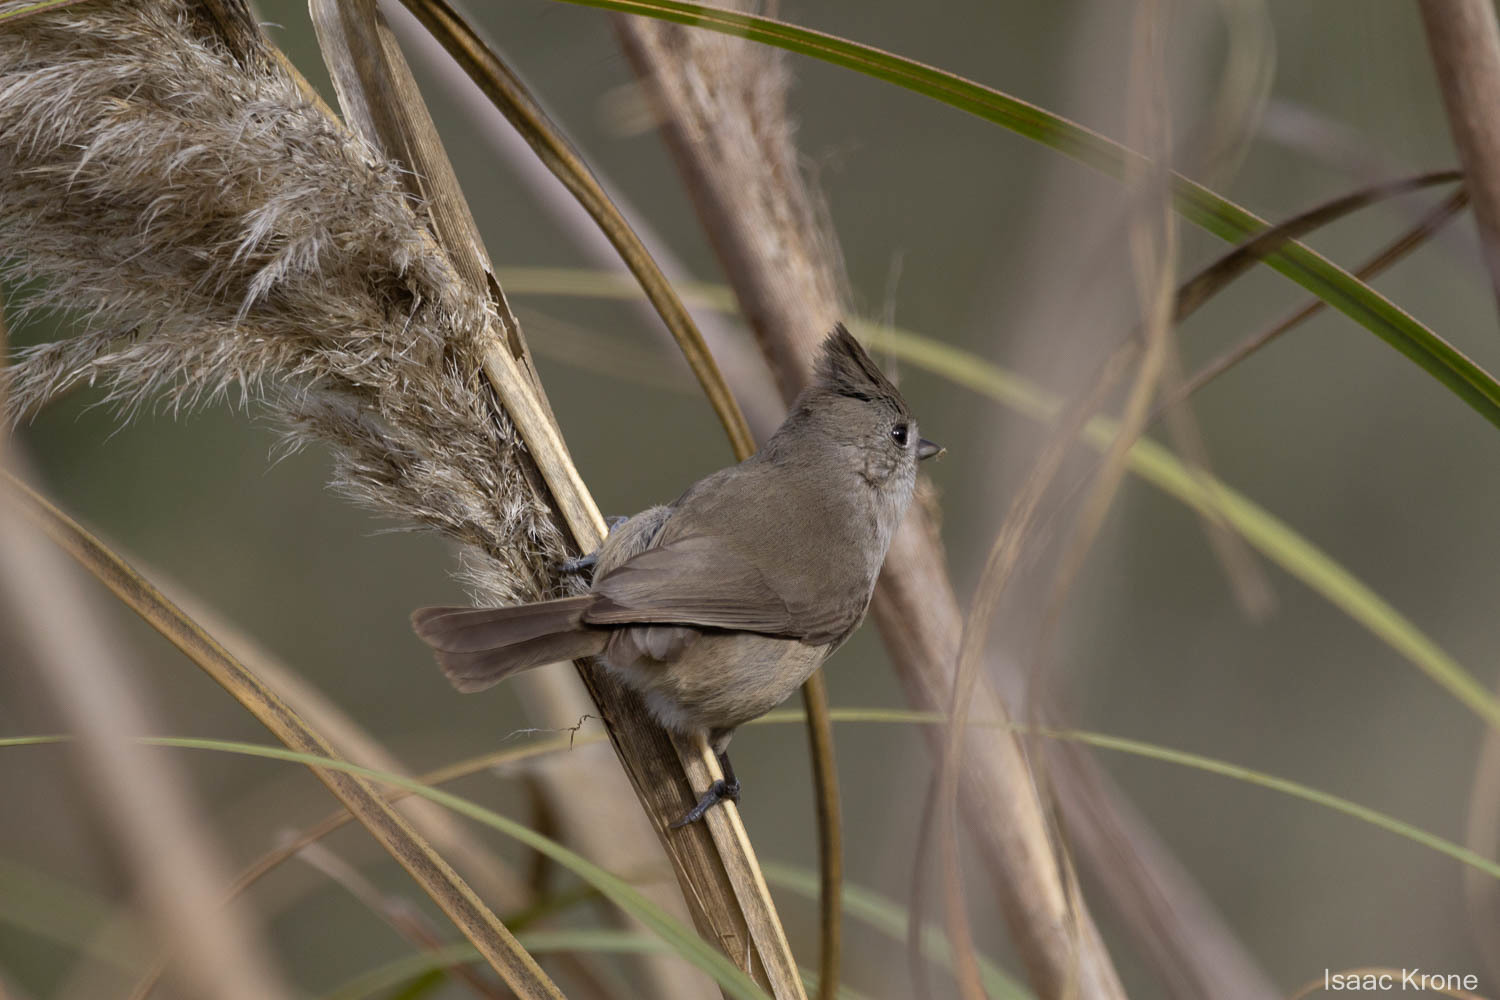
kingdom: Animalia
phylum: Chordata
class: Aves
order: Passeriformes
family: Paridae
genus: Baeolophus
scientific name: Baeolophus inornatus
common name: Oak titmouse
